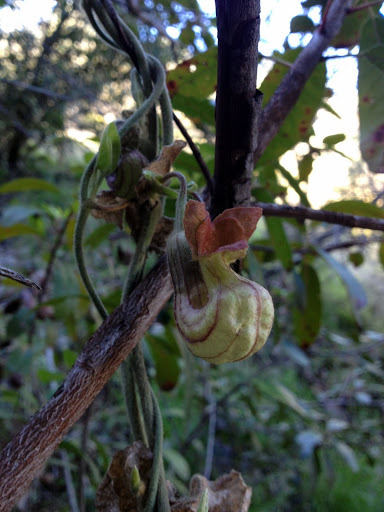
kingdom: Plantae
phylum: Tracheophyta
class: Magnoliopsida
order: Piperales
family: Aristolochiaceae
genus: Isotrema
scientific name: Isotrema californicum
